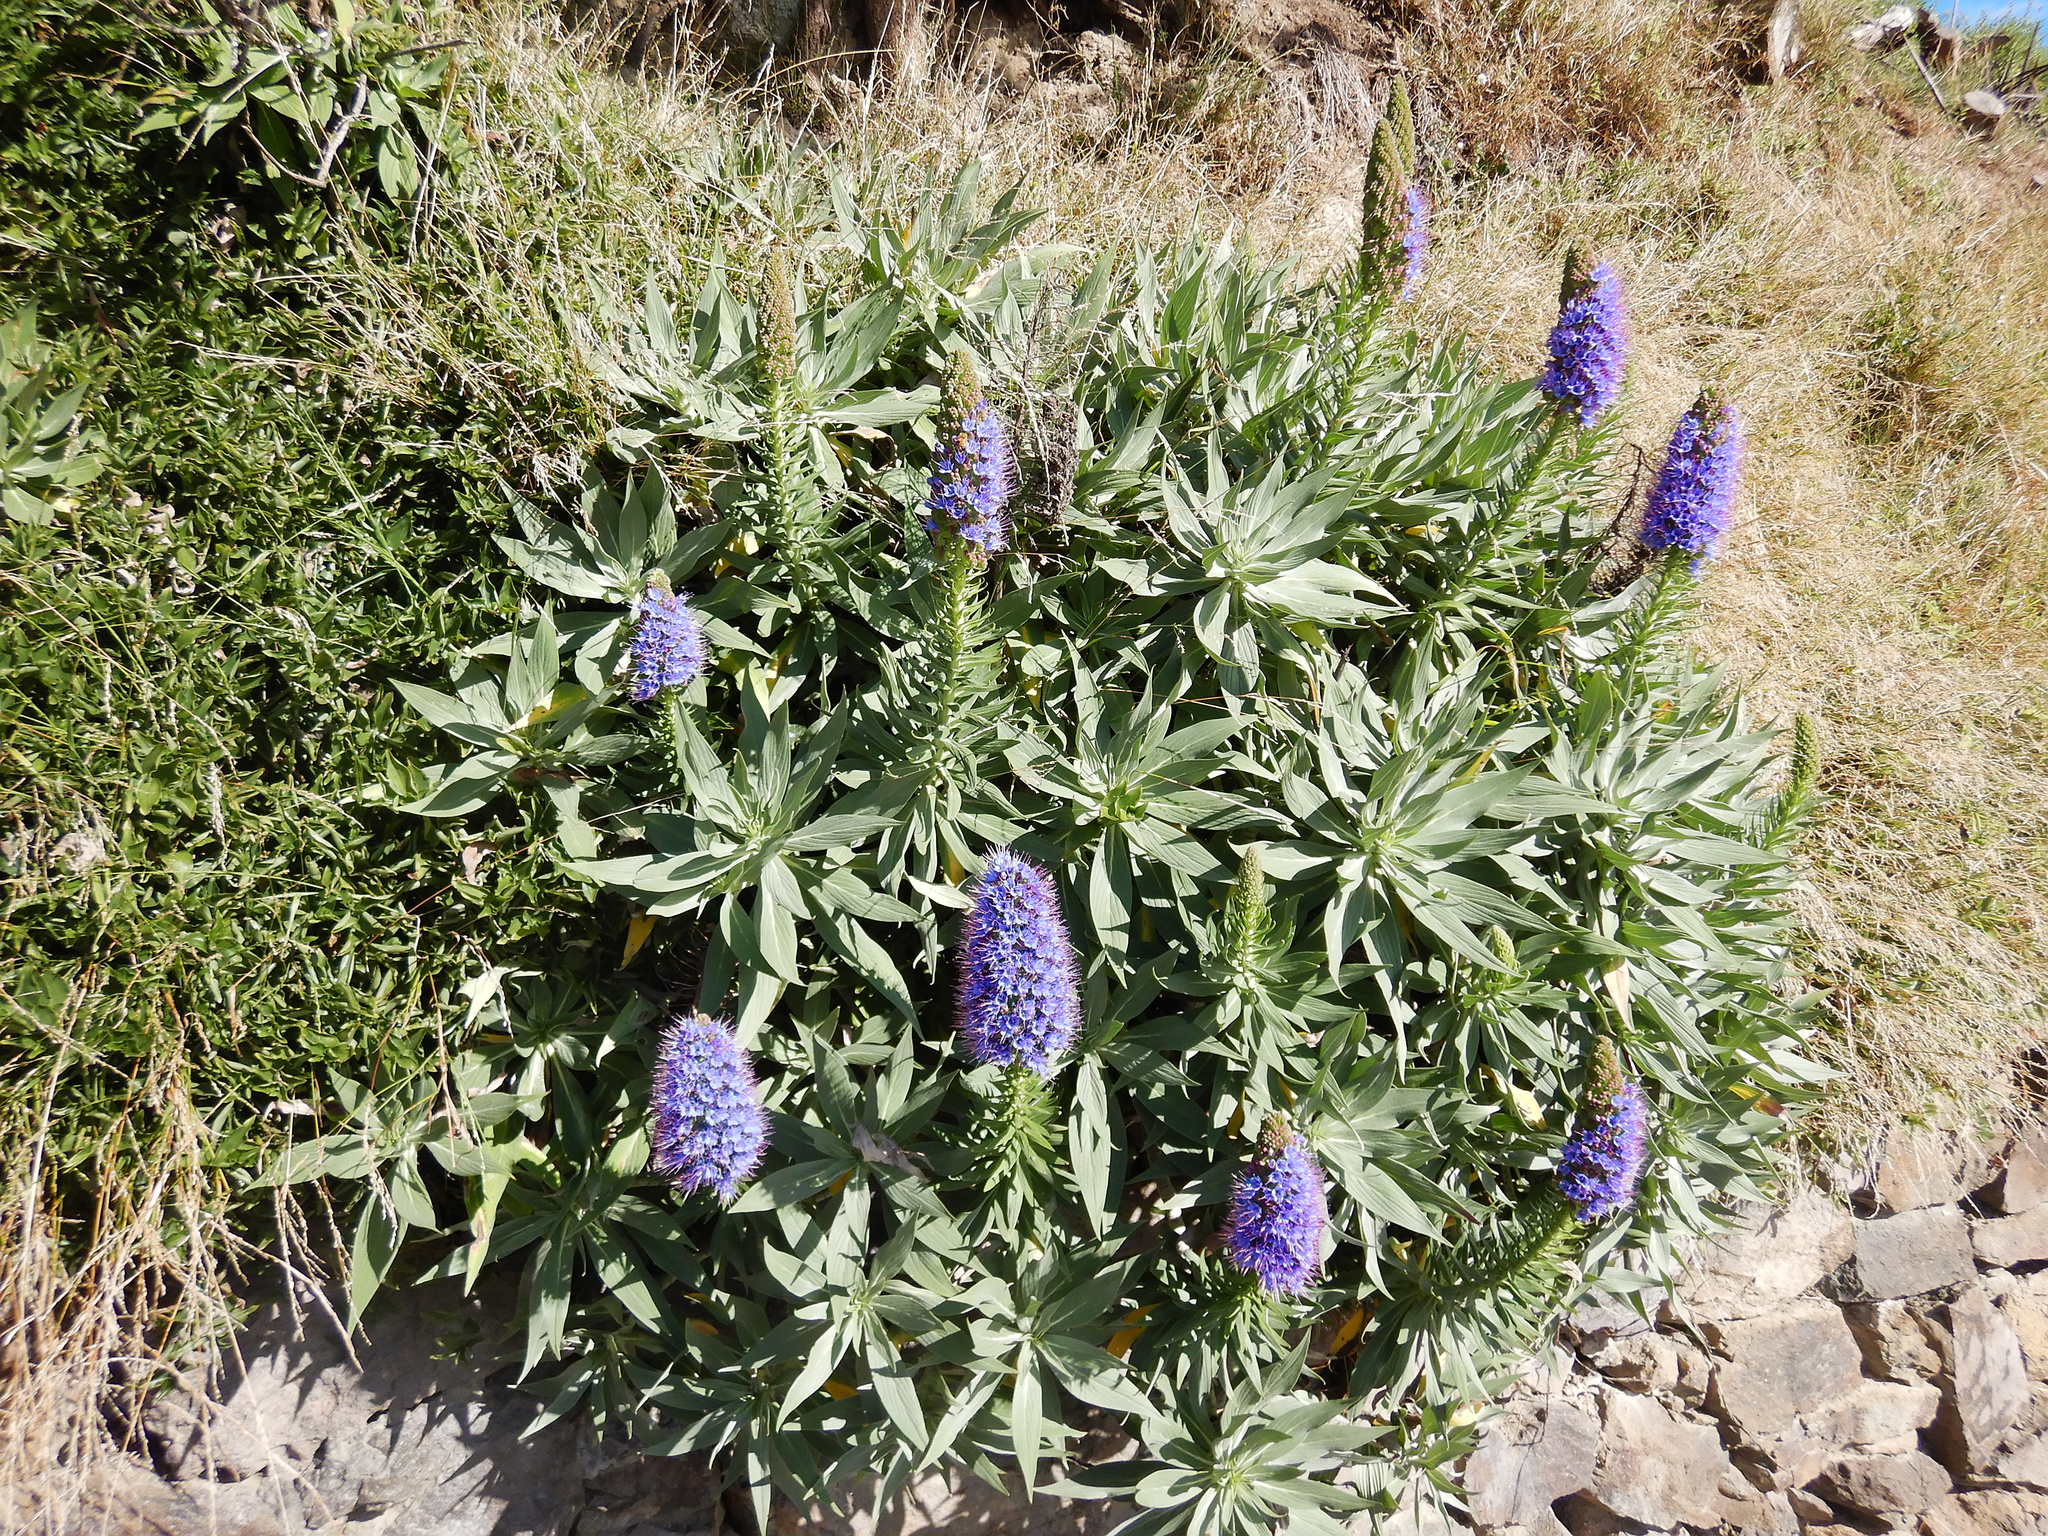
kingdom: Plantae
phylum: Tracheophyta
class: Magnoliopsida
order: Boraginales
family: Boraginaceae
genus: Echium
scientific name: Echium candicans
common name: Pride of madeira
